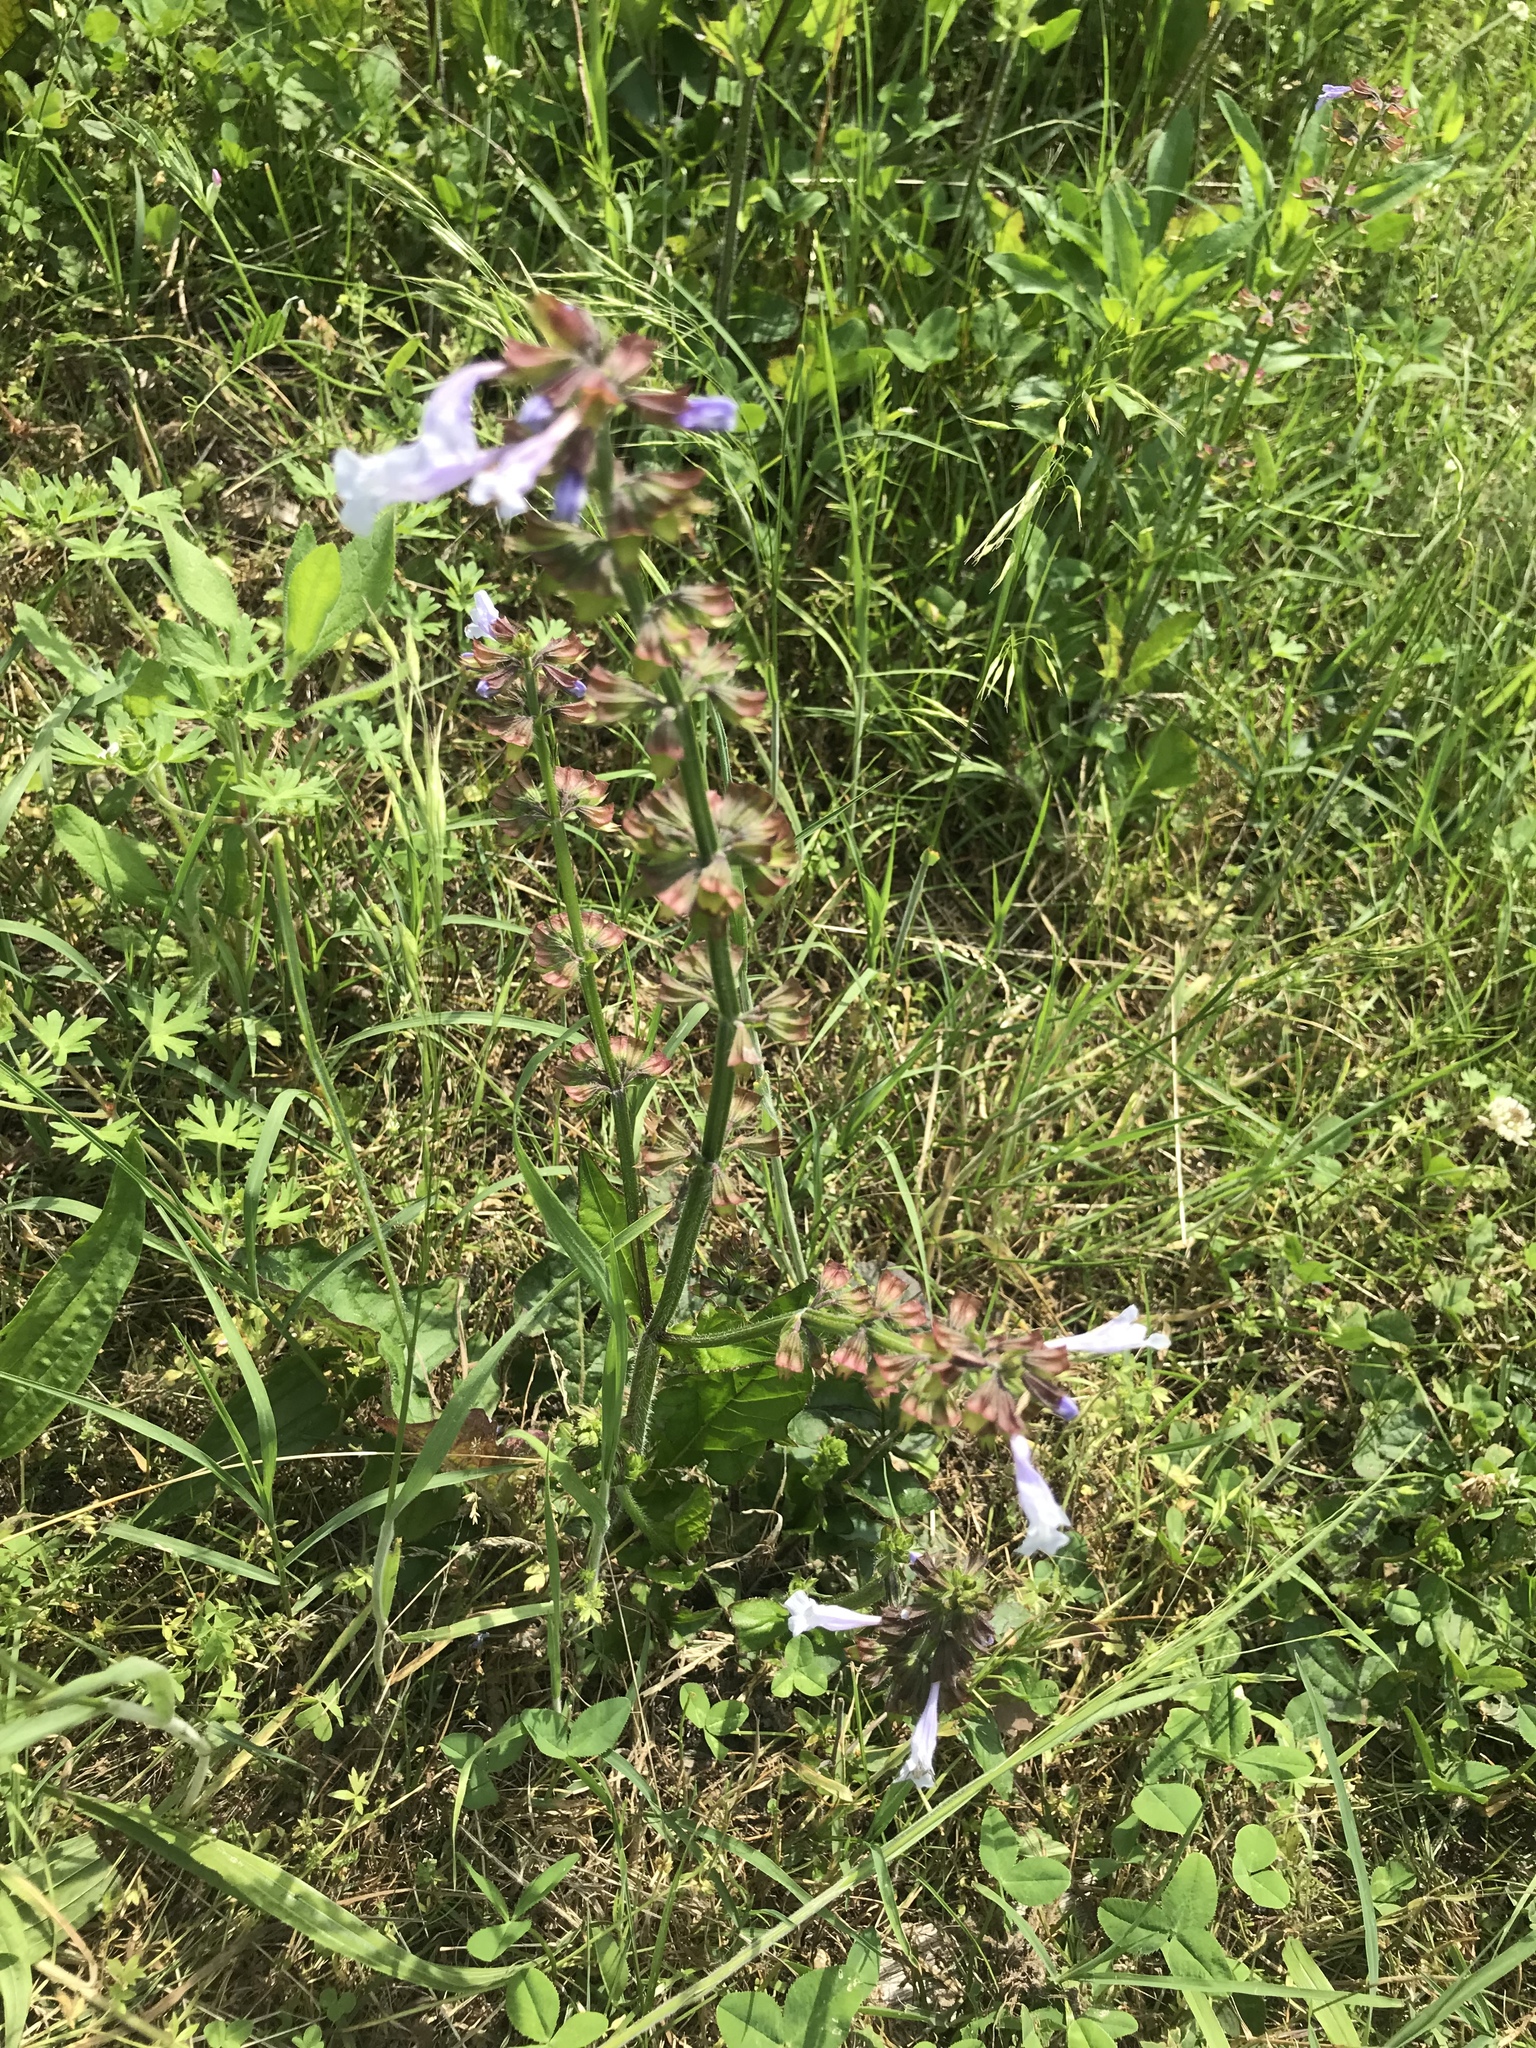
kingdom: Plantae
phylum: Tracheophyta
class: Magnoliopsida
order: Lamiales
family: Lamiaceae
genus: Salvia
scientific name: Salvia lyrata
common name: Cancerweed
